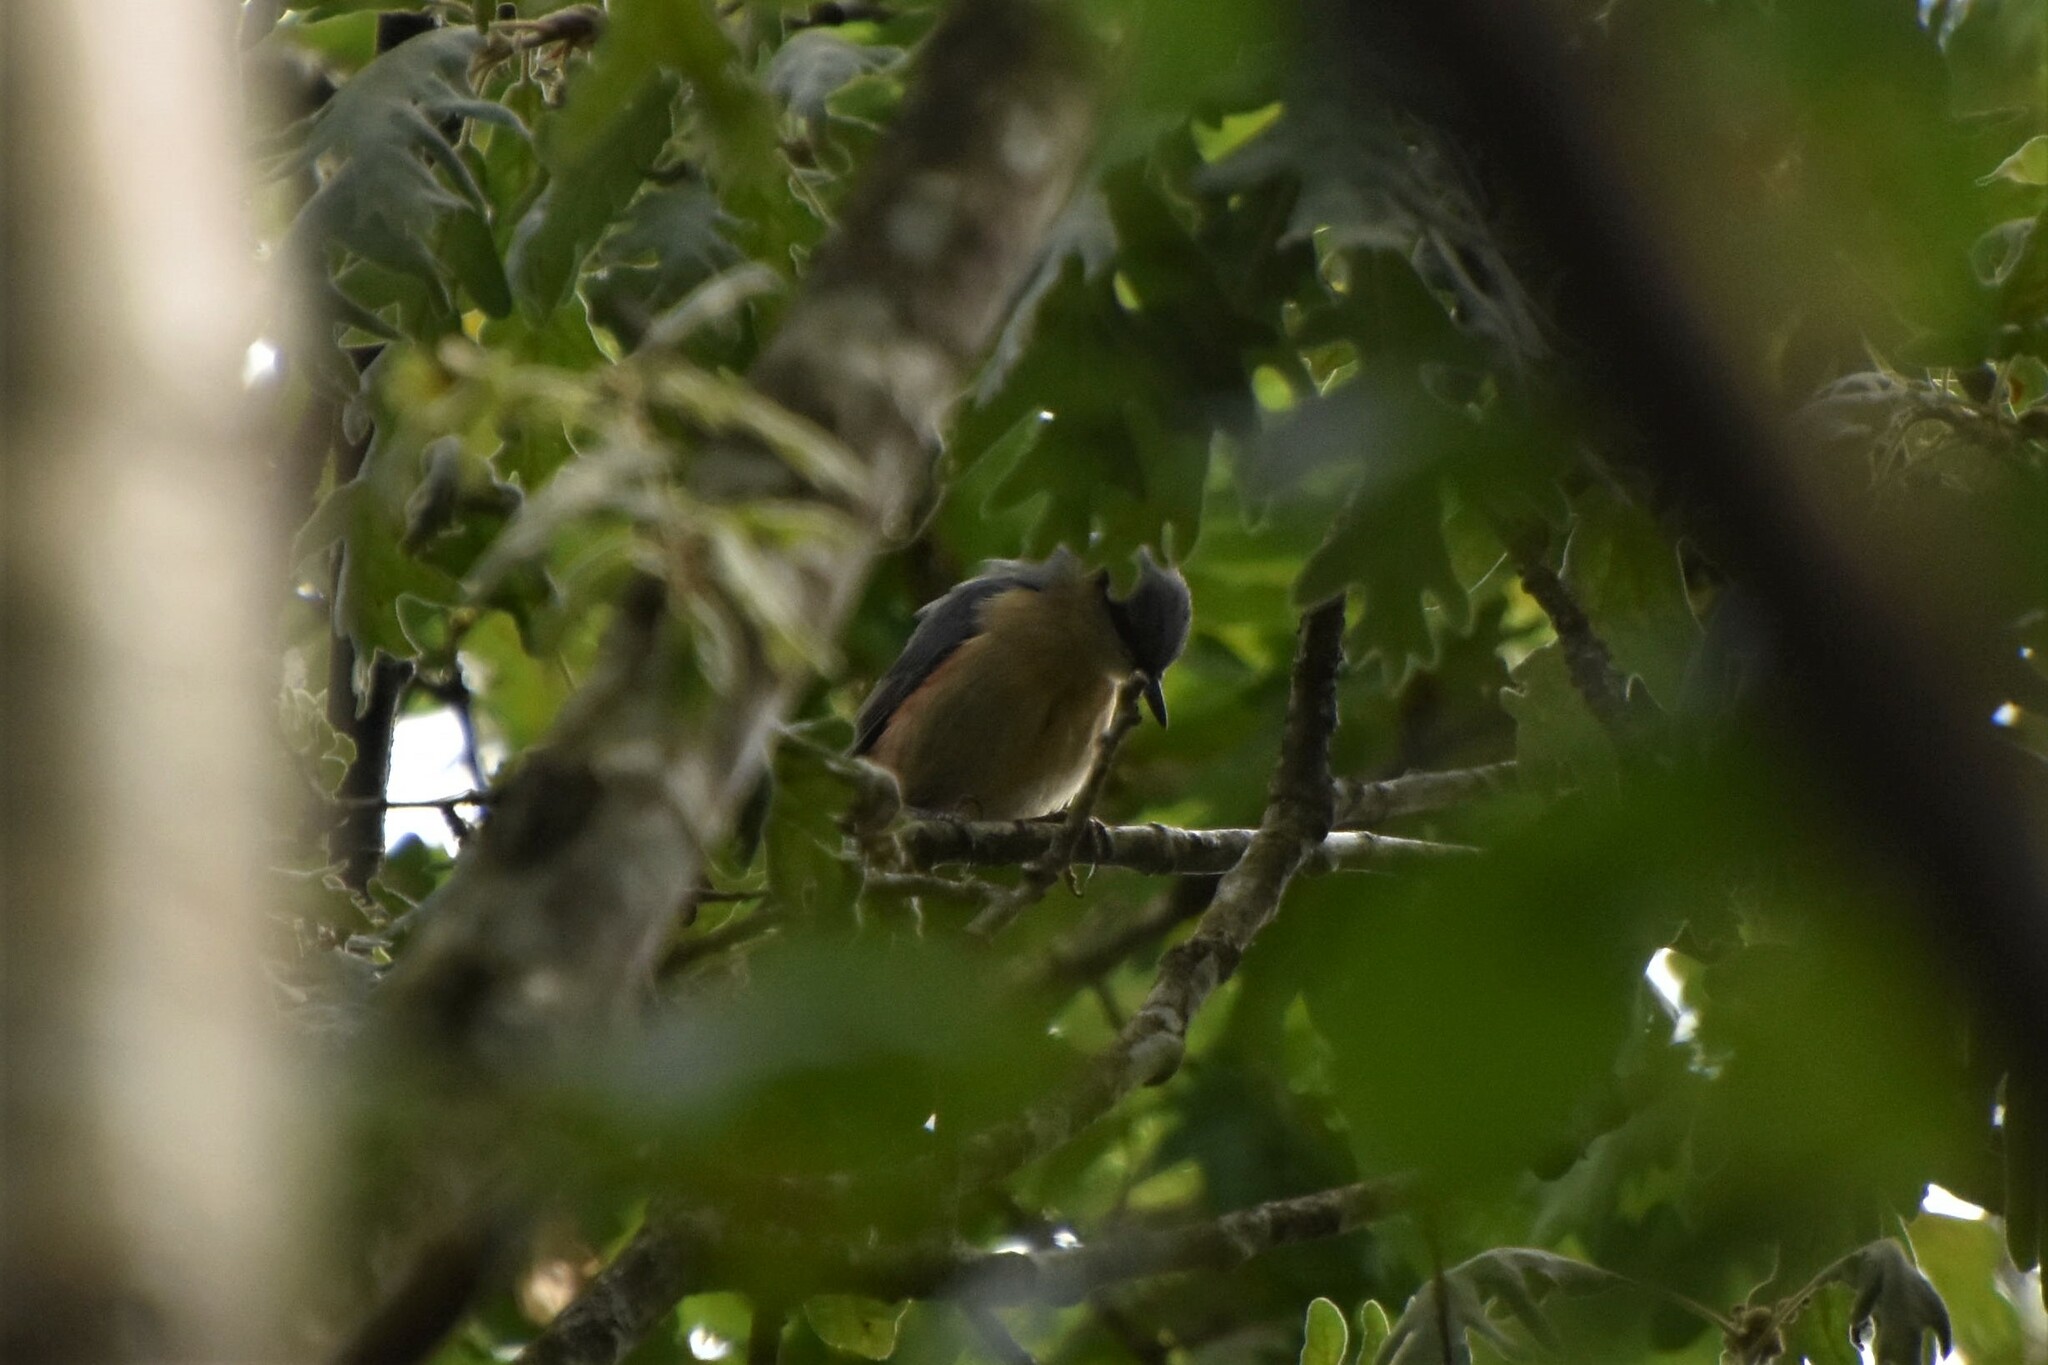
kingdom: Animalia
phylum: Chordata
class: Aves
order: Passeriformes
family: Sittidae
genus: Sitta
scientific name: Sitta europaea
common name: Eurasian nuthatch
